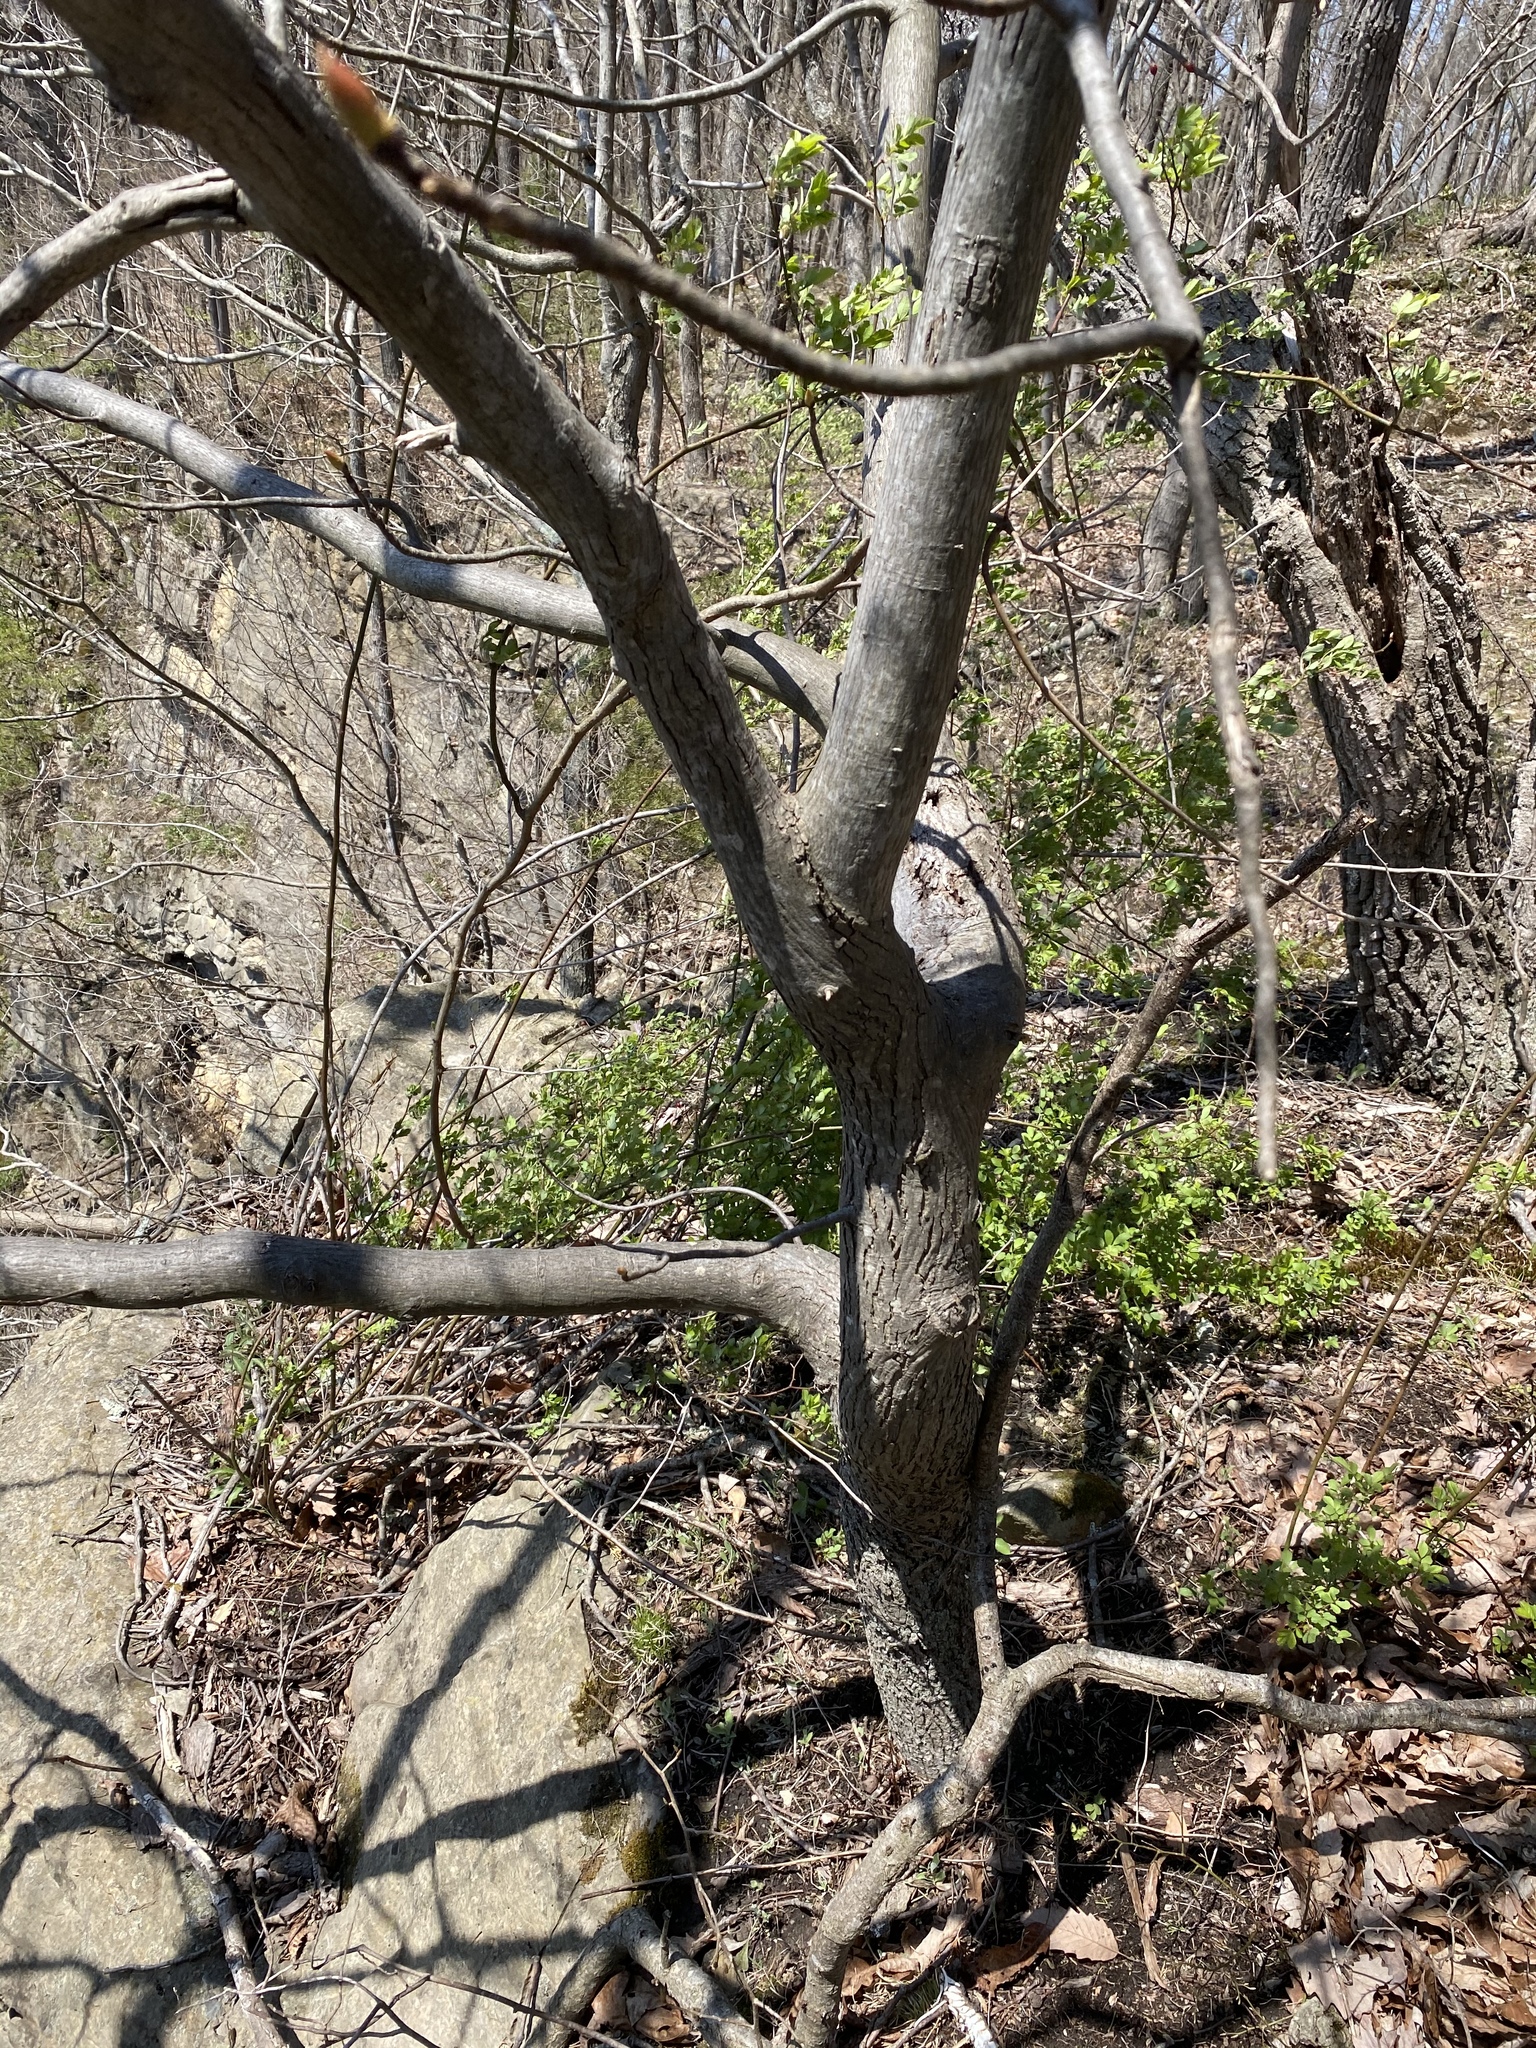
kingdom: Plantae
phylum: Tracheophyta
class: Magnoliopsida
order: Fagales
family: Juglandaceae
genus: Carya
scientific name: Carya glabra
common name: Pignut hickory
